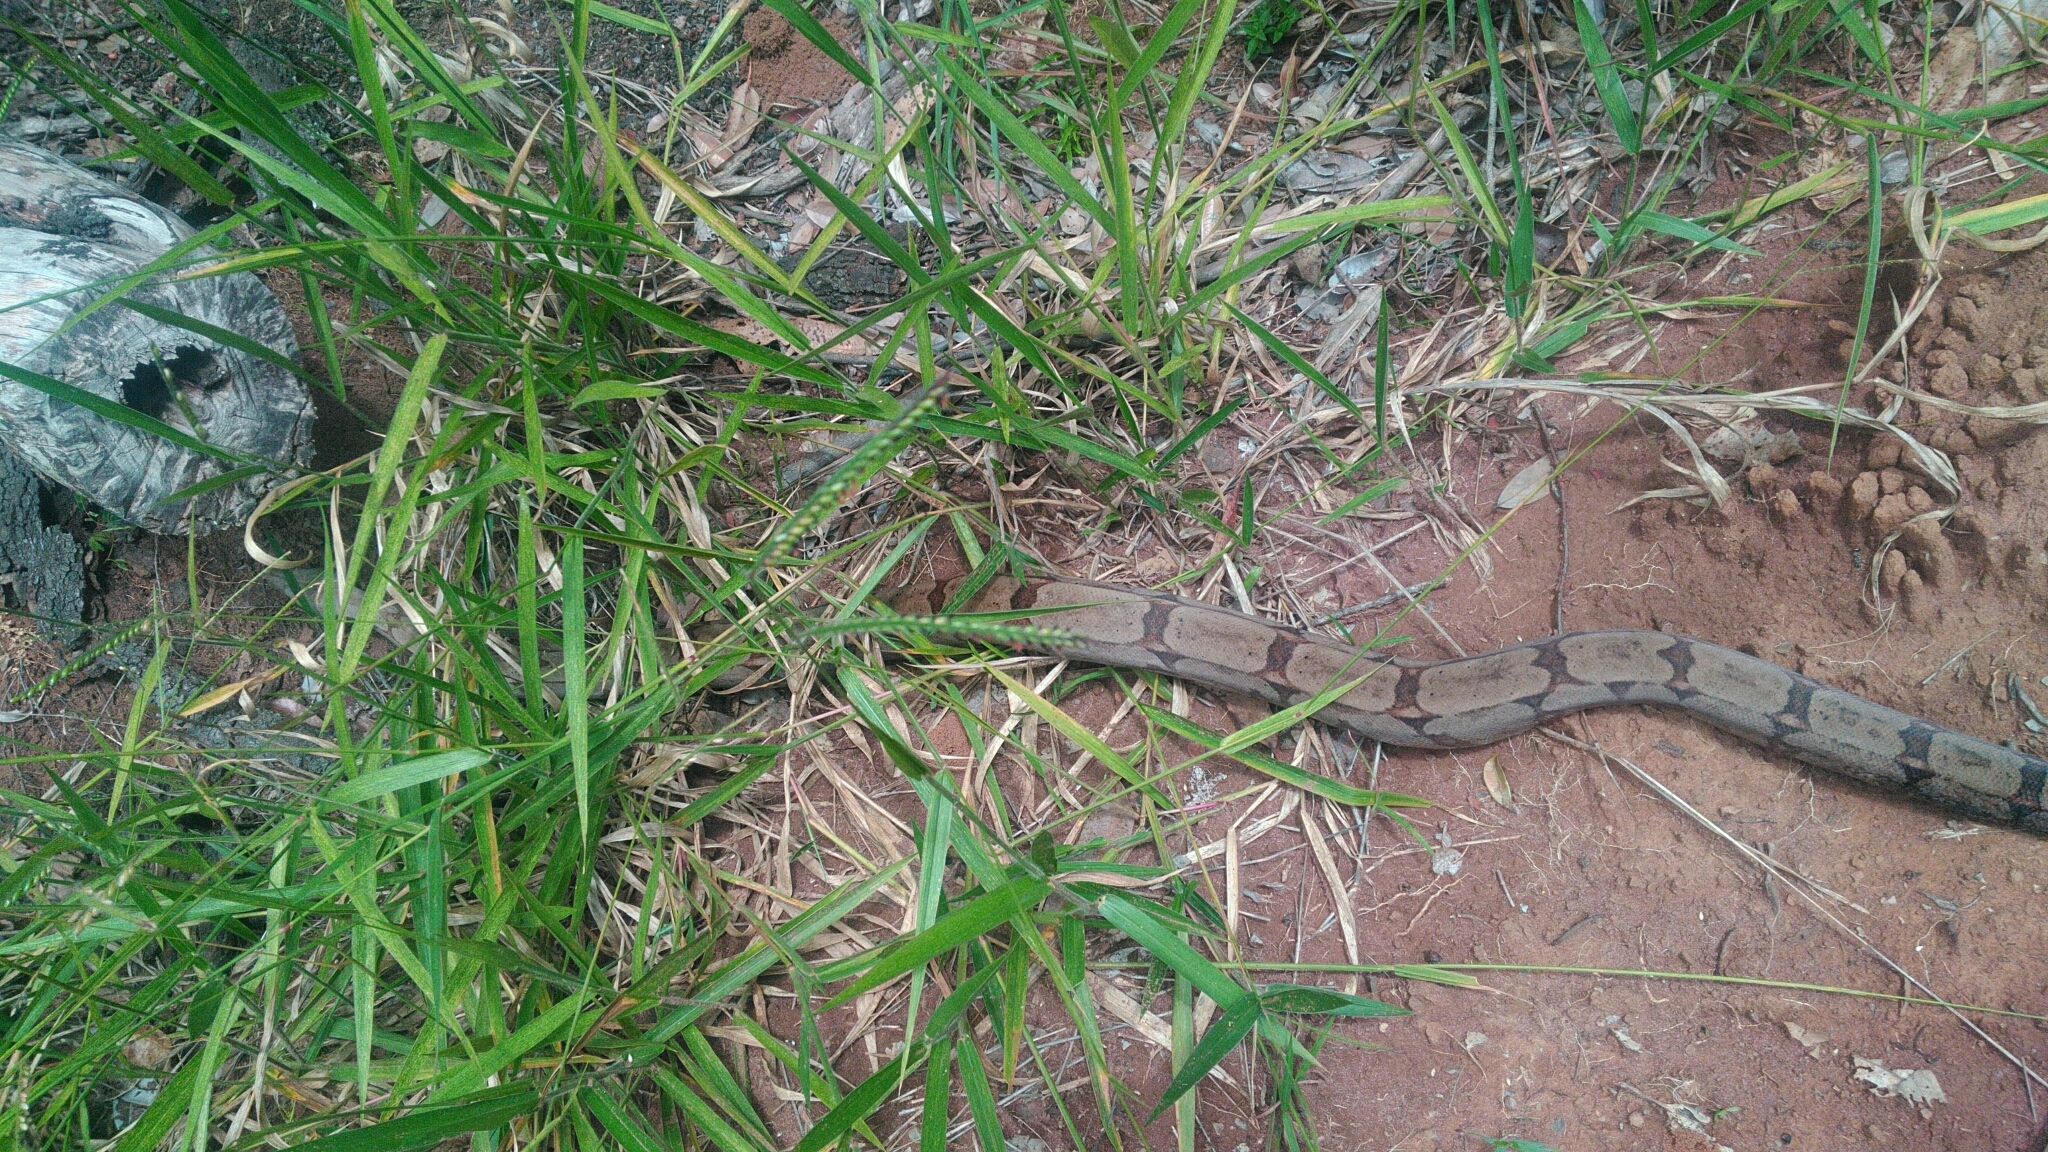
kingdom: Animalia
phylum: Chordata
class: Squamata
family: Boidae
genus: Boa
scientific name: Boa constrictor
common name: Boa constrictor
